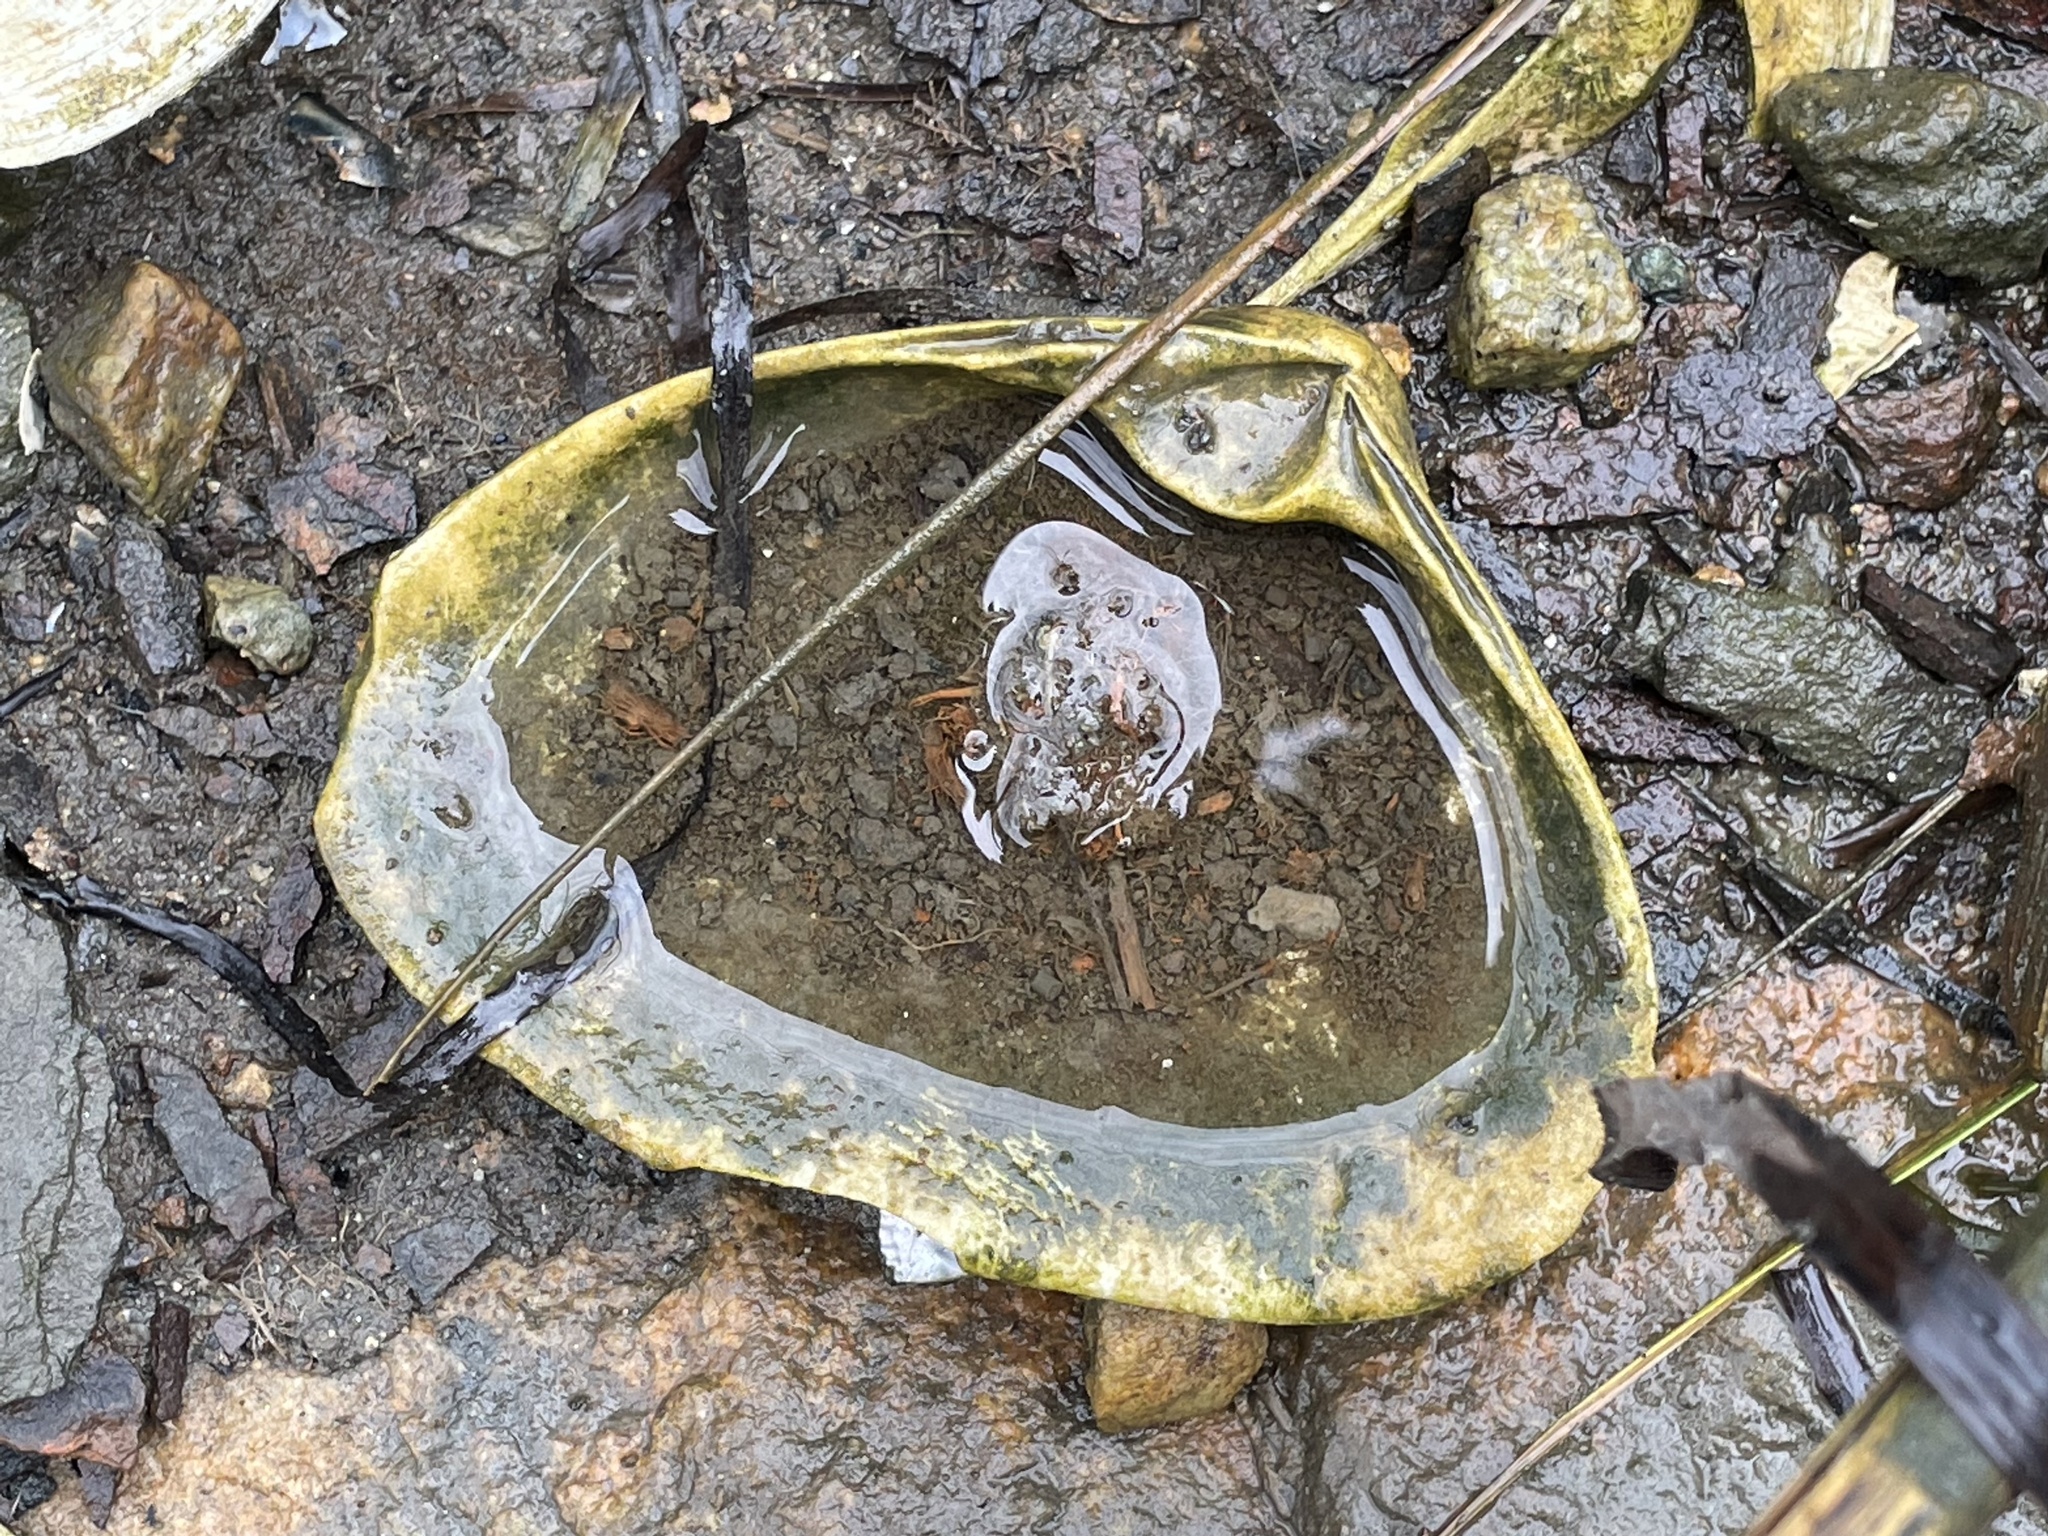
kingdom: Animalia
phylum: Mollusca
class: Bivalvia
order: Venerida
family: Mactridae
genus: Spisula
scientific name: Spisula solidissima
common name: Atlantic surf clam
